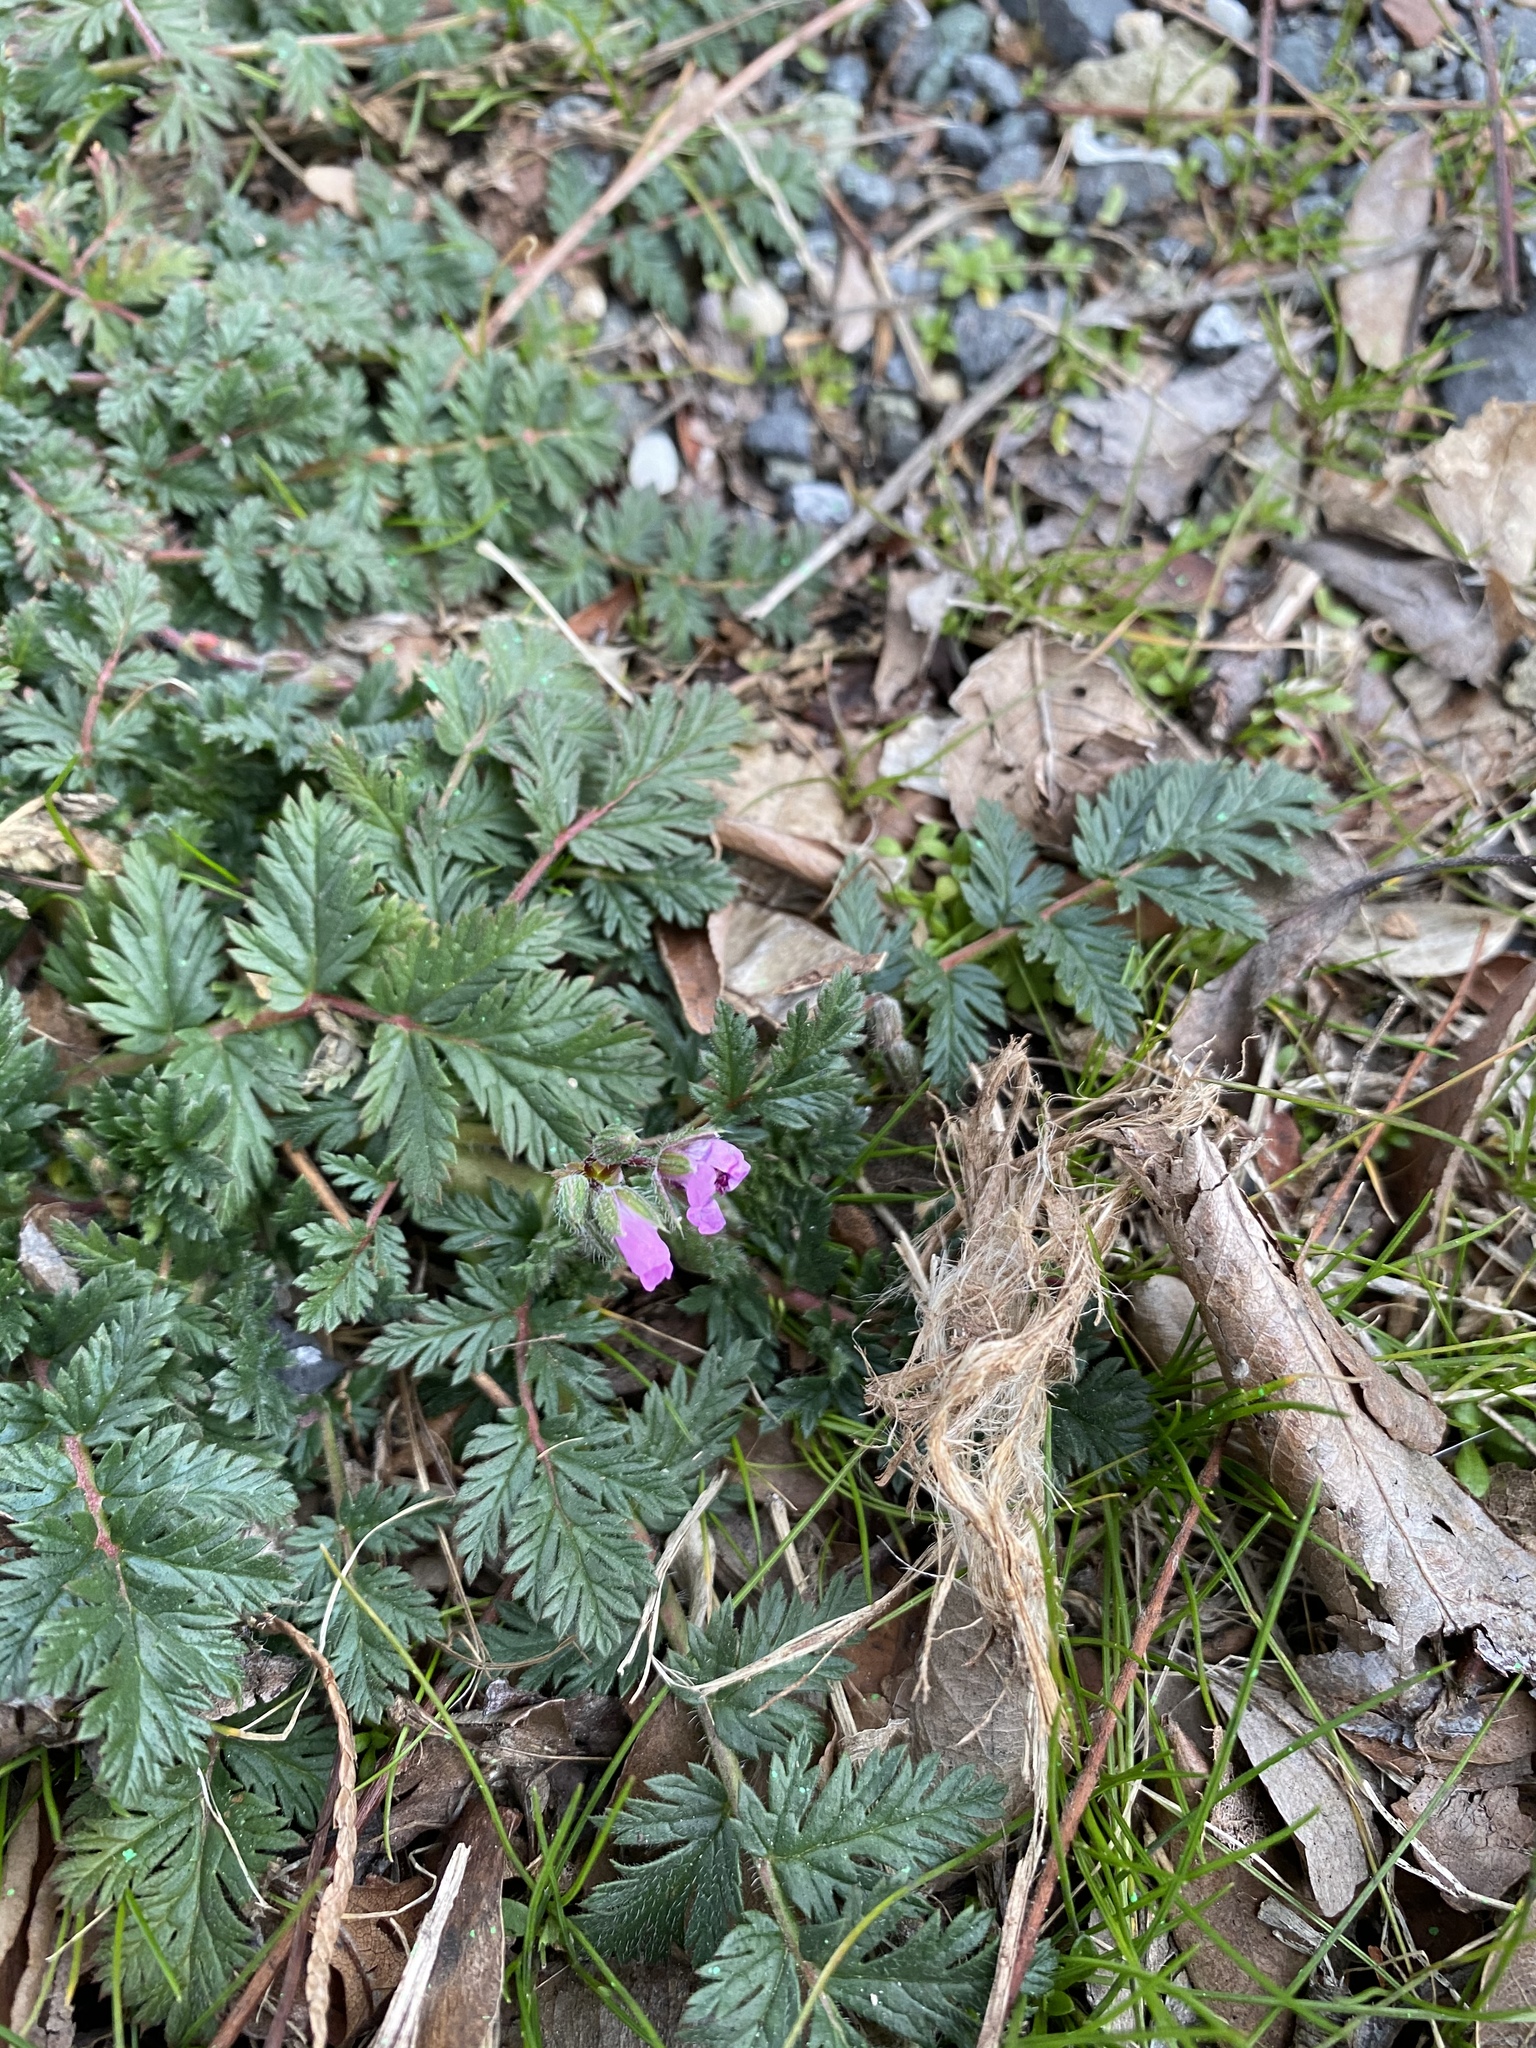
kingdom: Plantae
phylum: Tracheophyta
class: Magnoliopsida
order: Geraniales
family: Geraniaceae
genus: Erodium
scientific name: Erodium cicutarium
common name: Common stork's-bill
